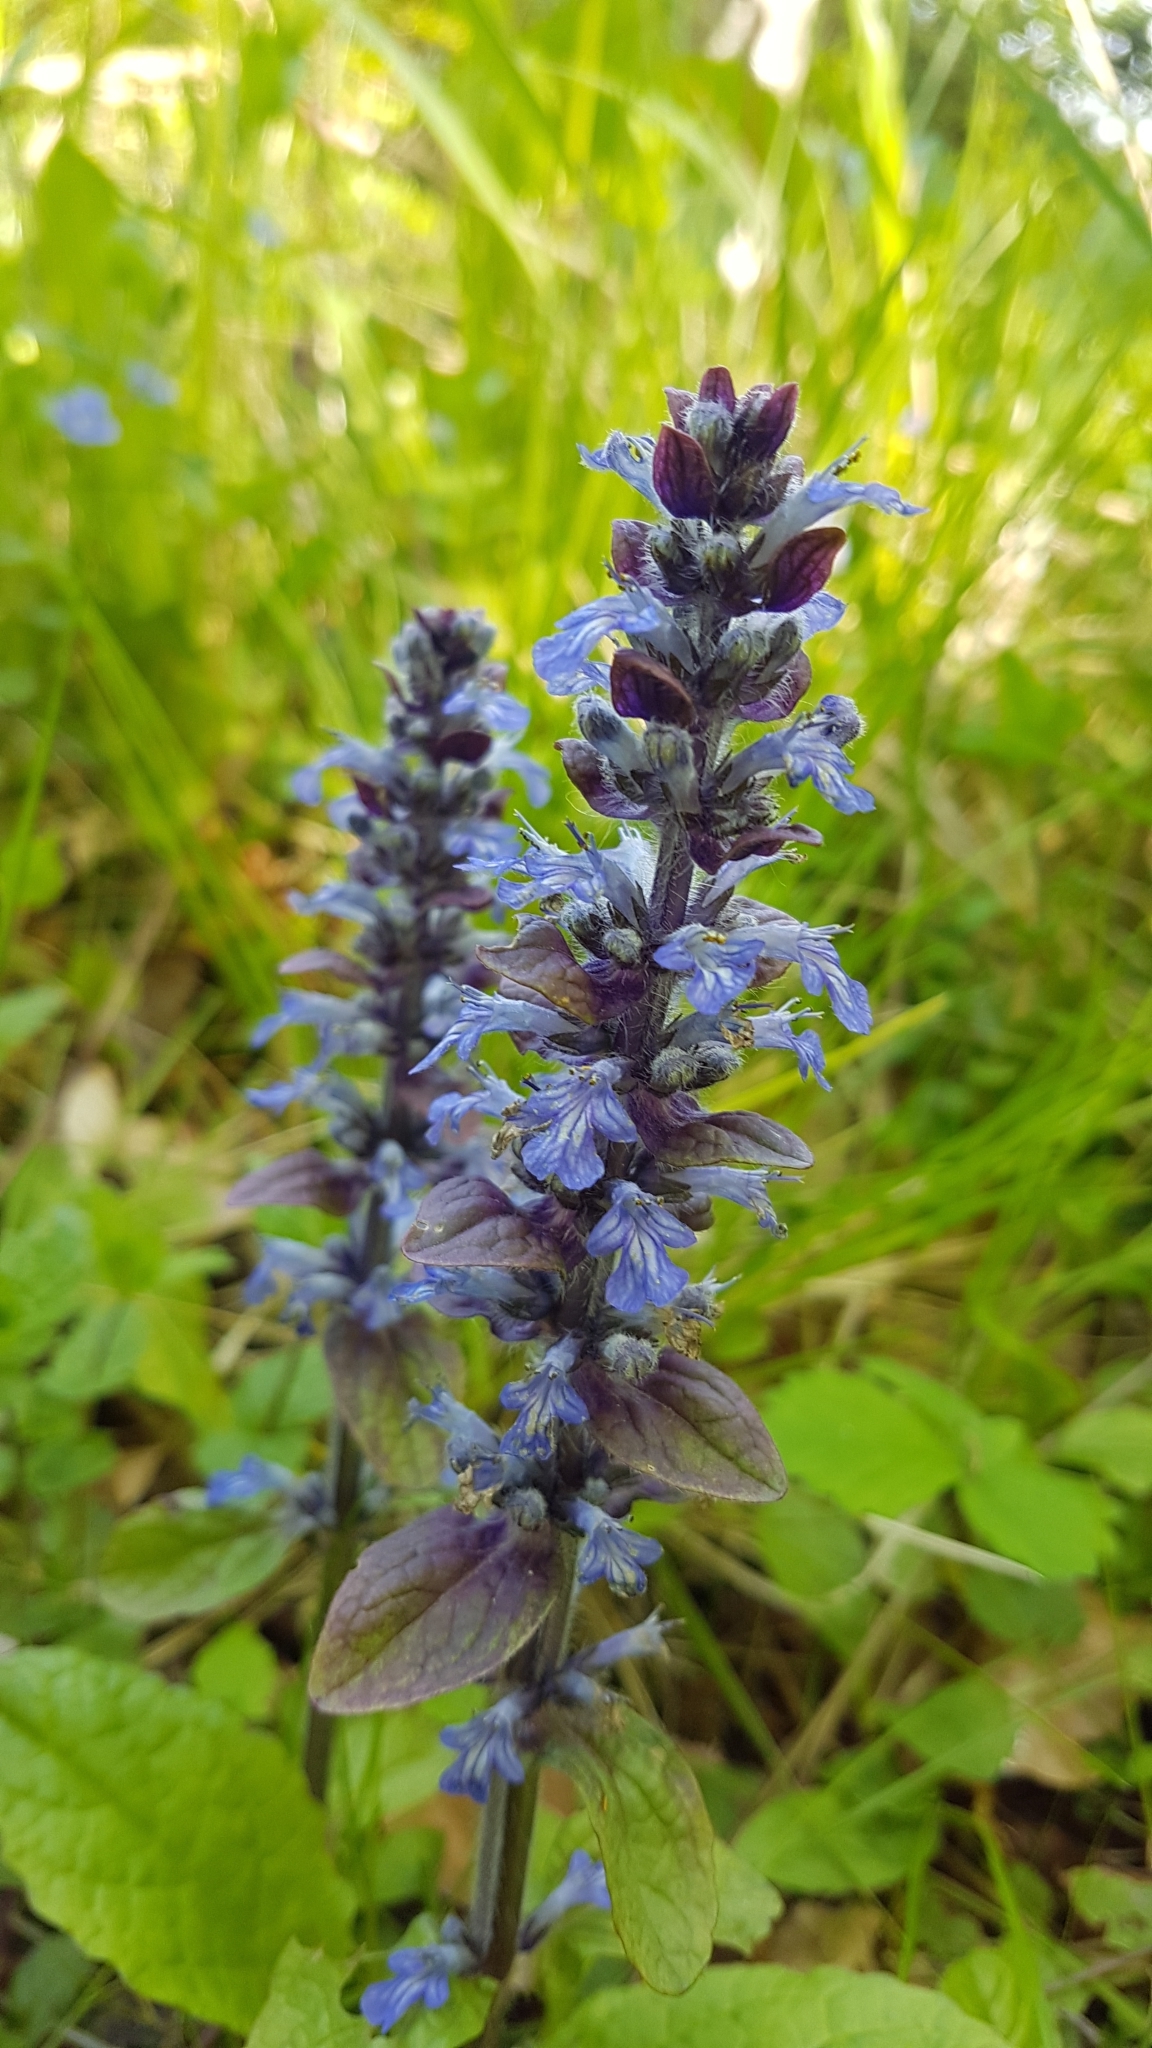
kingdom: Plantae
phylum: Tracheophyta
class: Magnoliopsida
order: Lamiales
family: Lamiaceae
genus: Ajuga
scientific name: Ajuga reptans
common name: Bugle
